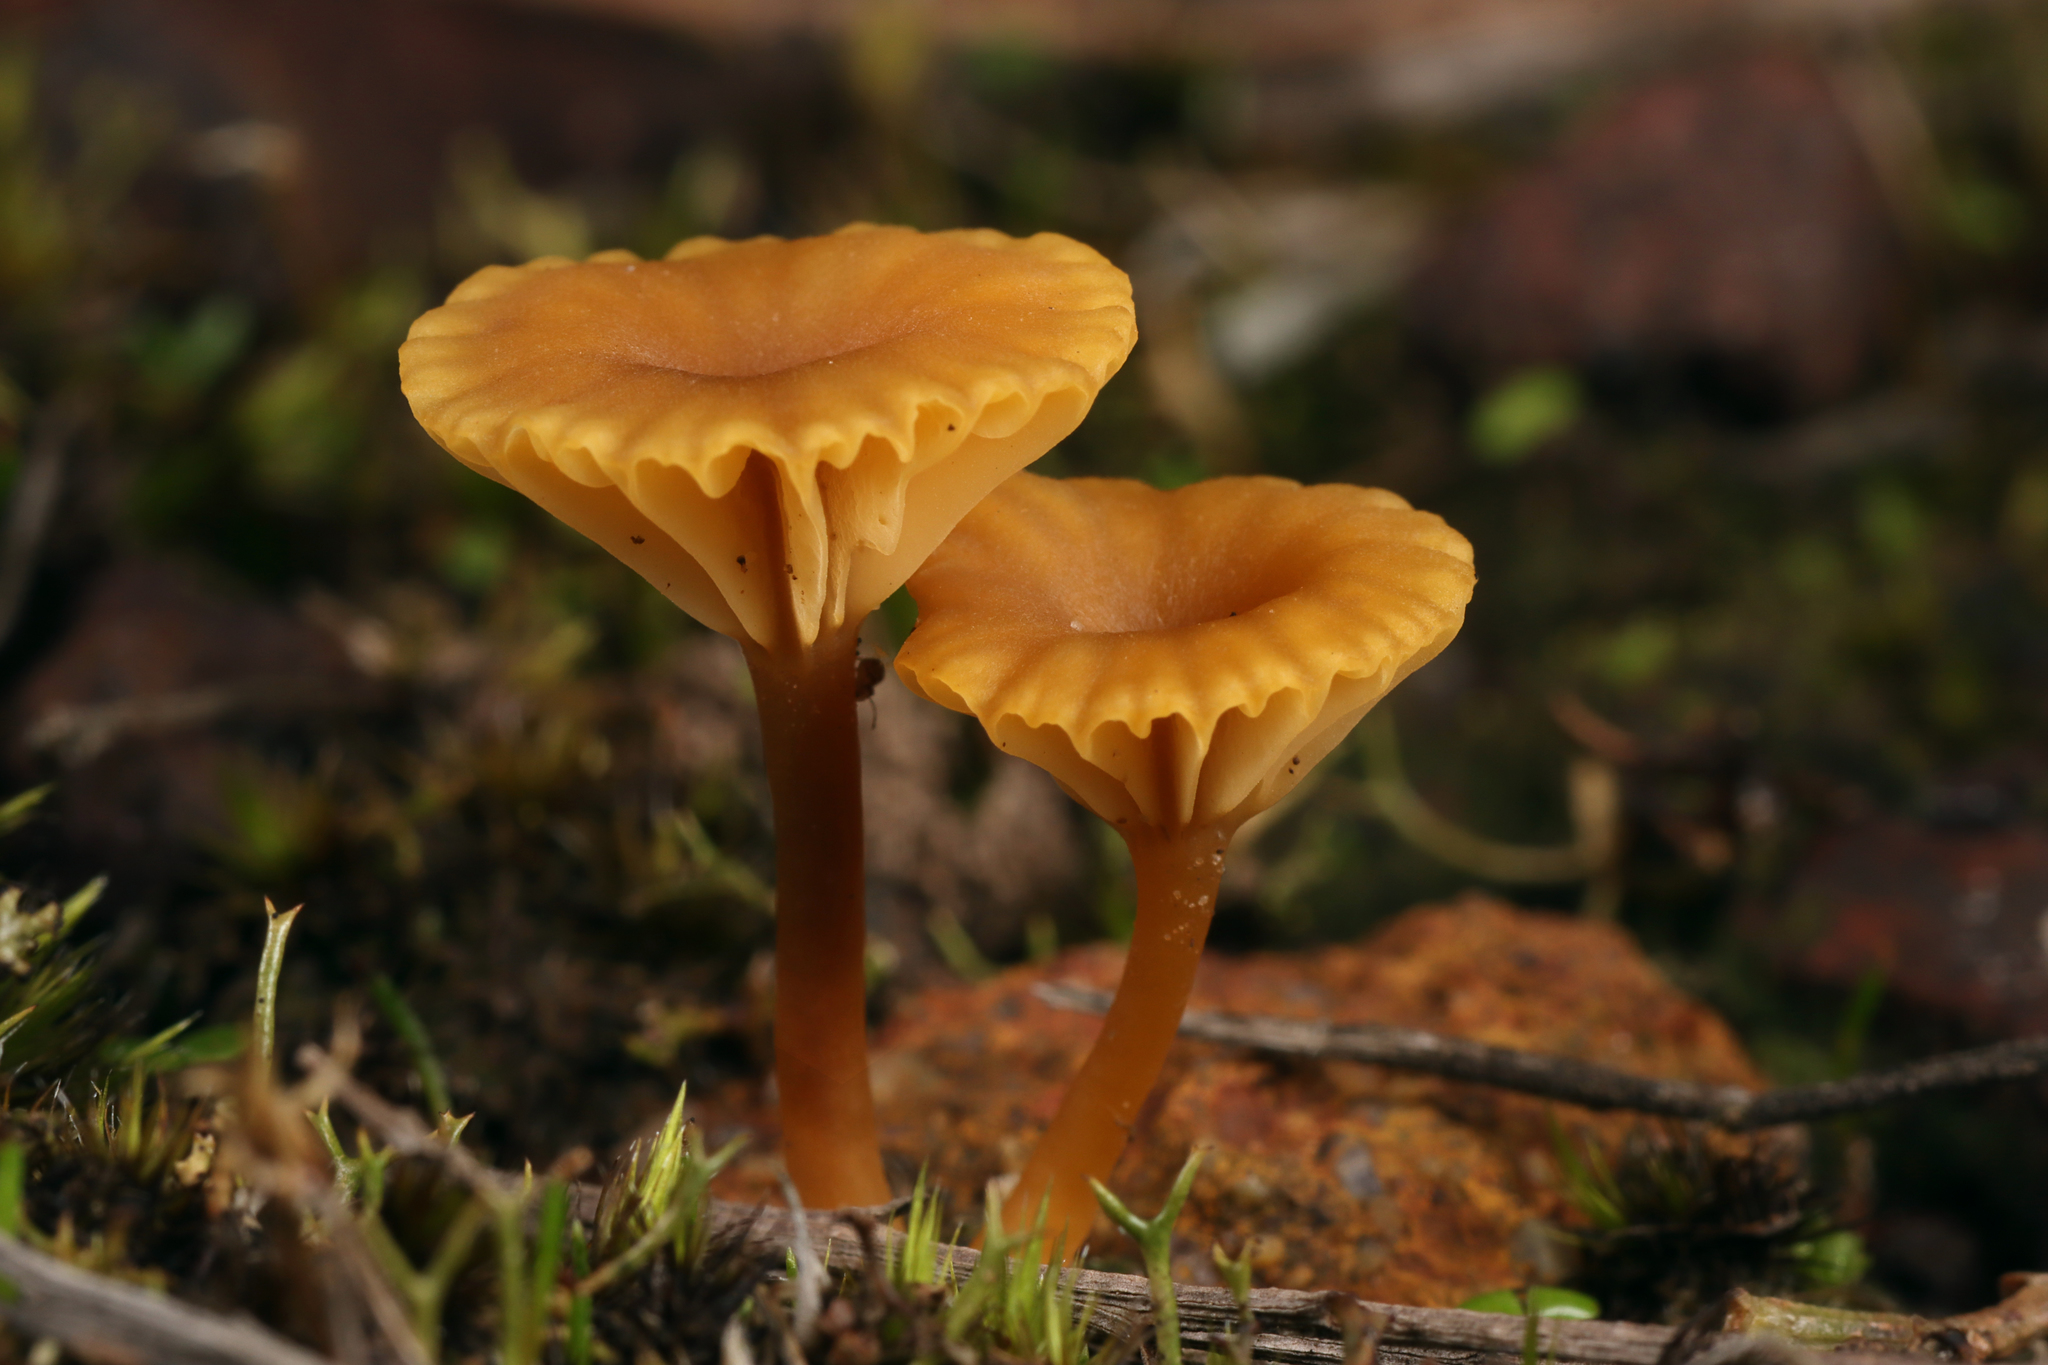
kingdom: Fungi
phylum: Basidiomycota
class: Agaricomycetes
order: Agaricales
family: Hygrophoraceae
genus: Lichenomphalia
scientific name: Lichenomphalia chromacea
